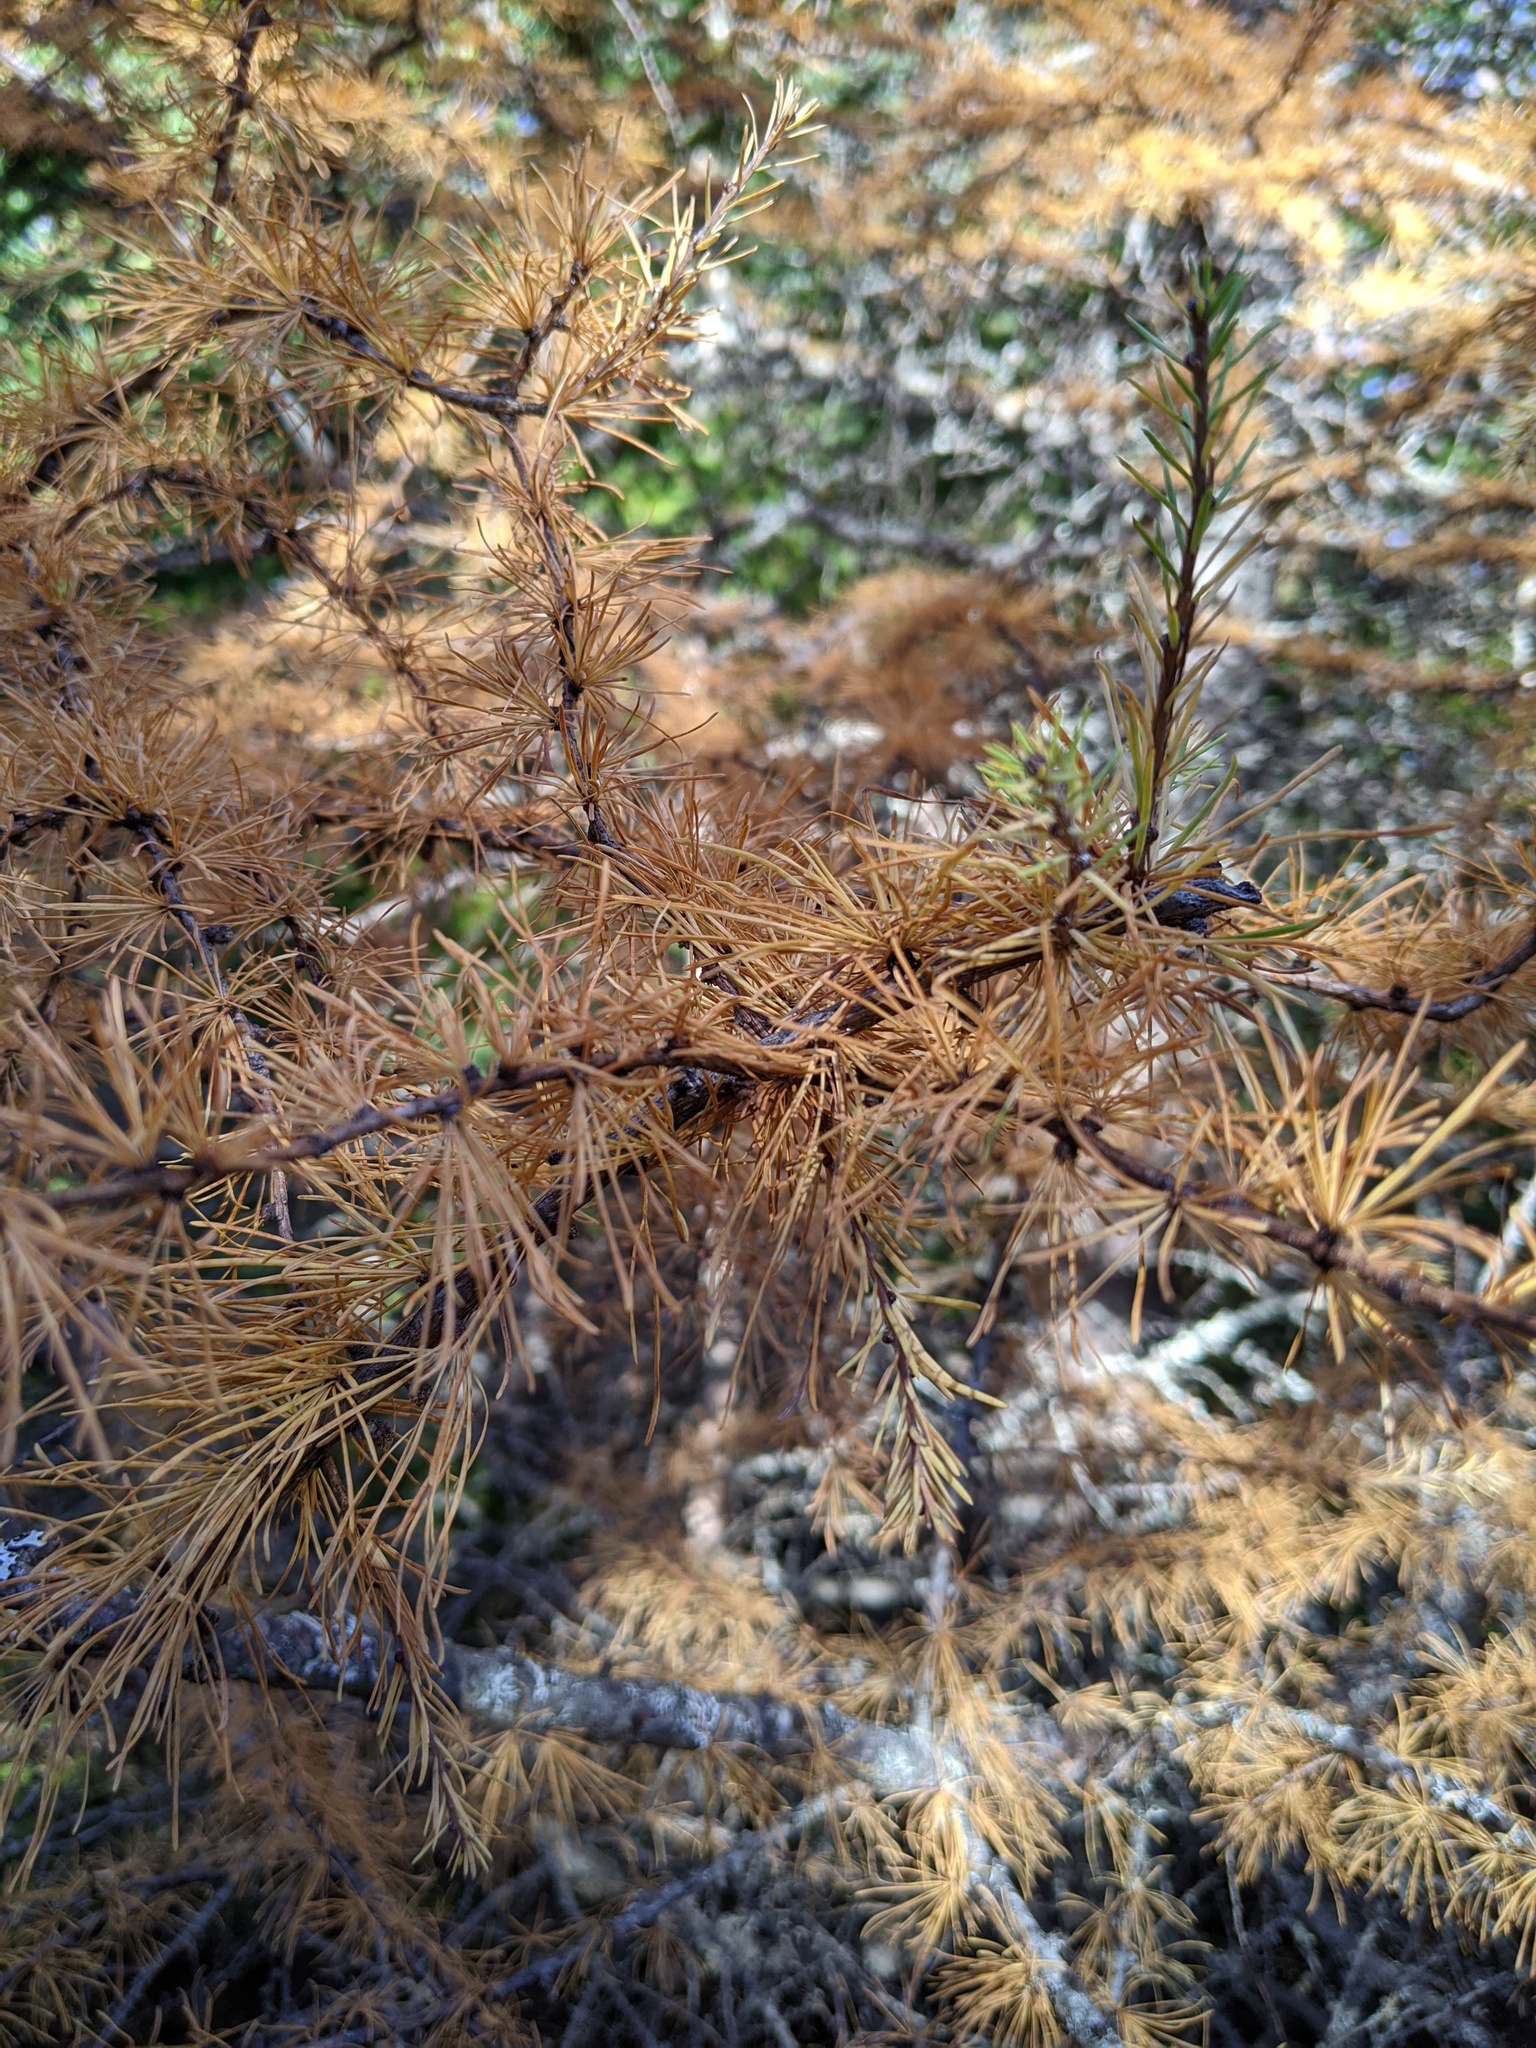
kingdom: Plantae
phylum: Tracheophyta
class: Pinopsida
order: Pinales
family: Pinaceae
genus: Larix
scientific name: Larix laricina
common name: American larch
